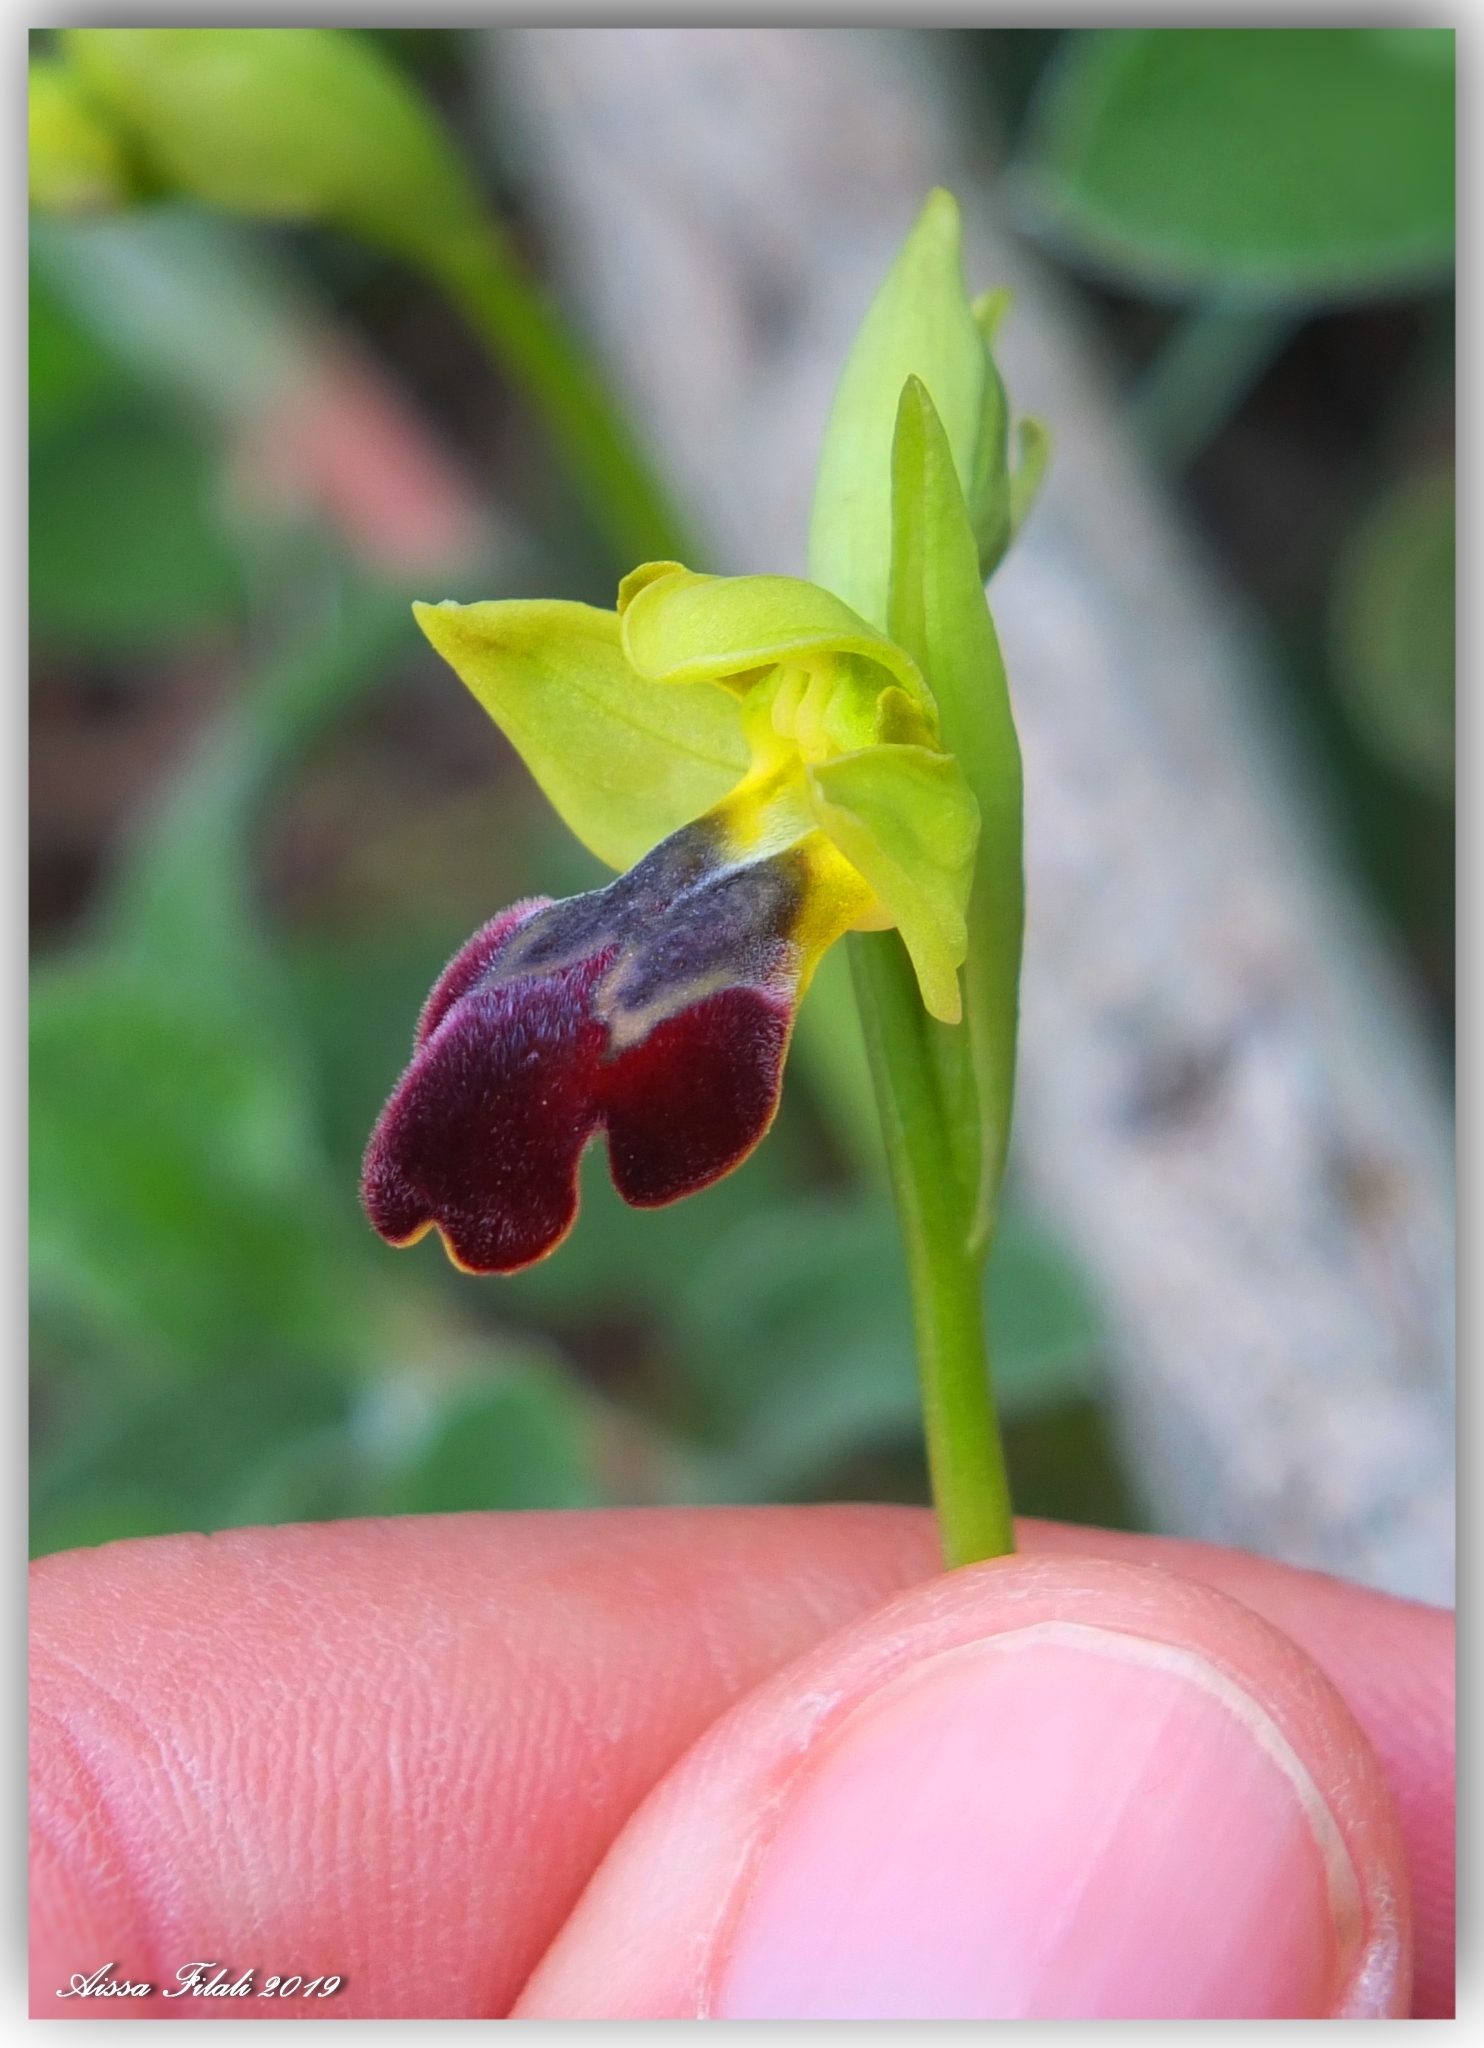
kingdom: Plantae
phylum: Tracheophyta
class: Liliopsida
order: Asparagales
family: Orchidaceae
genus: Ophrys
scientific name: Ophrys fusca
